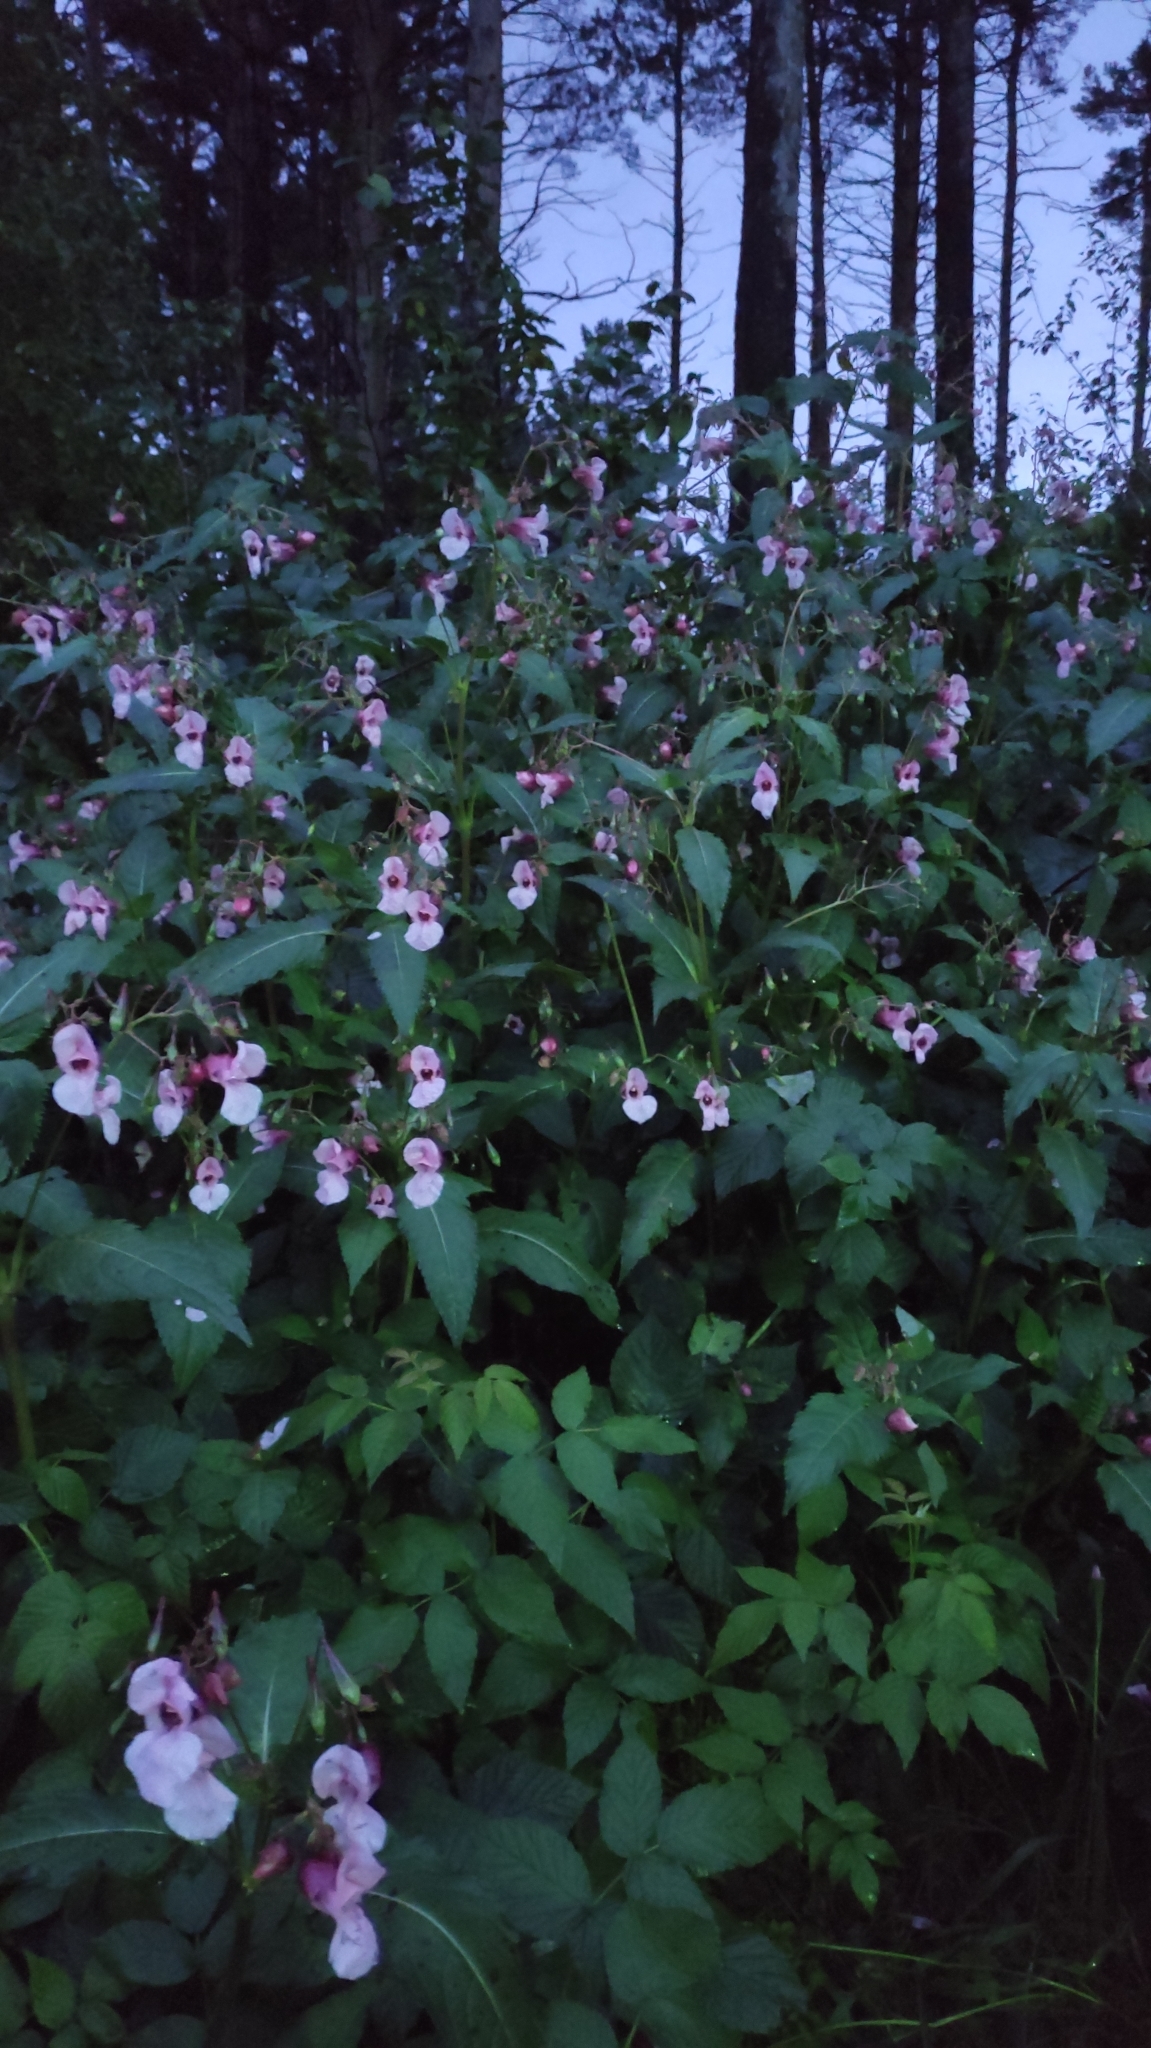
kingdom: Plantae
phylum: Tracheophyta
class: Magnoliopsida
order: Ericales
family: Balsaminaceae
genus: Impatiens
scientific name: Impatiens glandulifera
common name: Himalayan balsam
